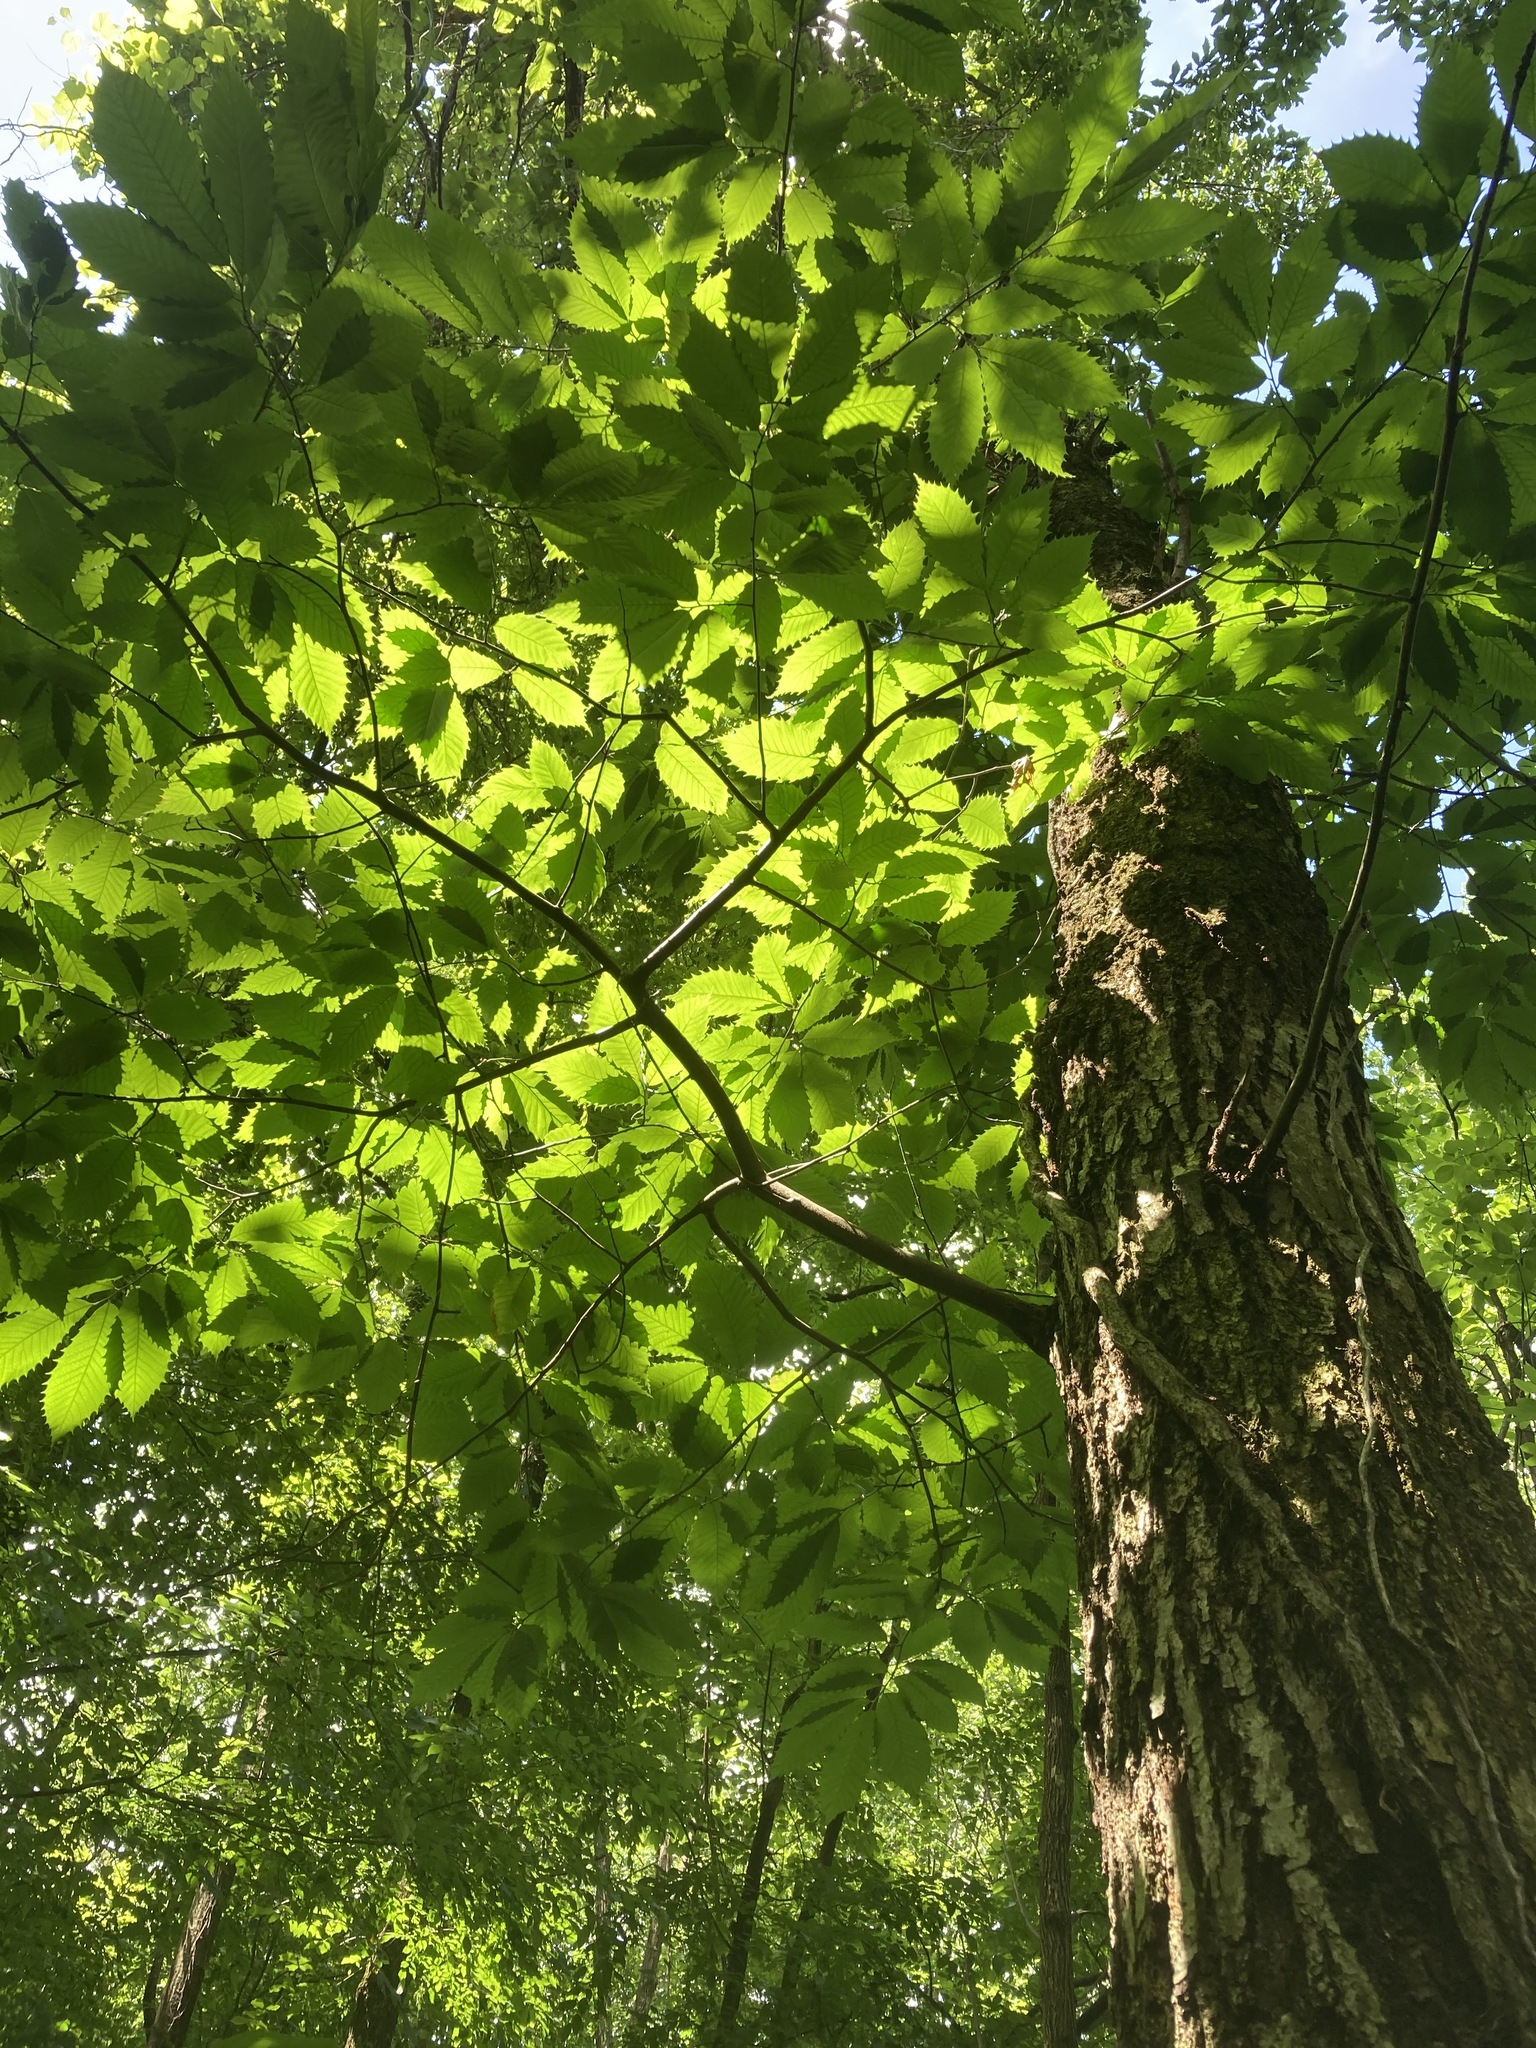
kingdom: Plantae
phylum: Tracheophyta
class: Magnoliopsida
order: Fagales
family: Fagaceae
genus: Castanea
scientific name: Castanea dentata
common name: American chestnut
